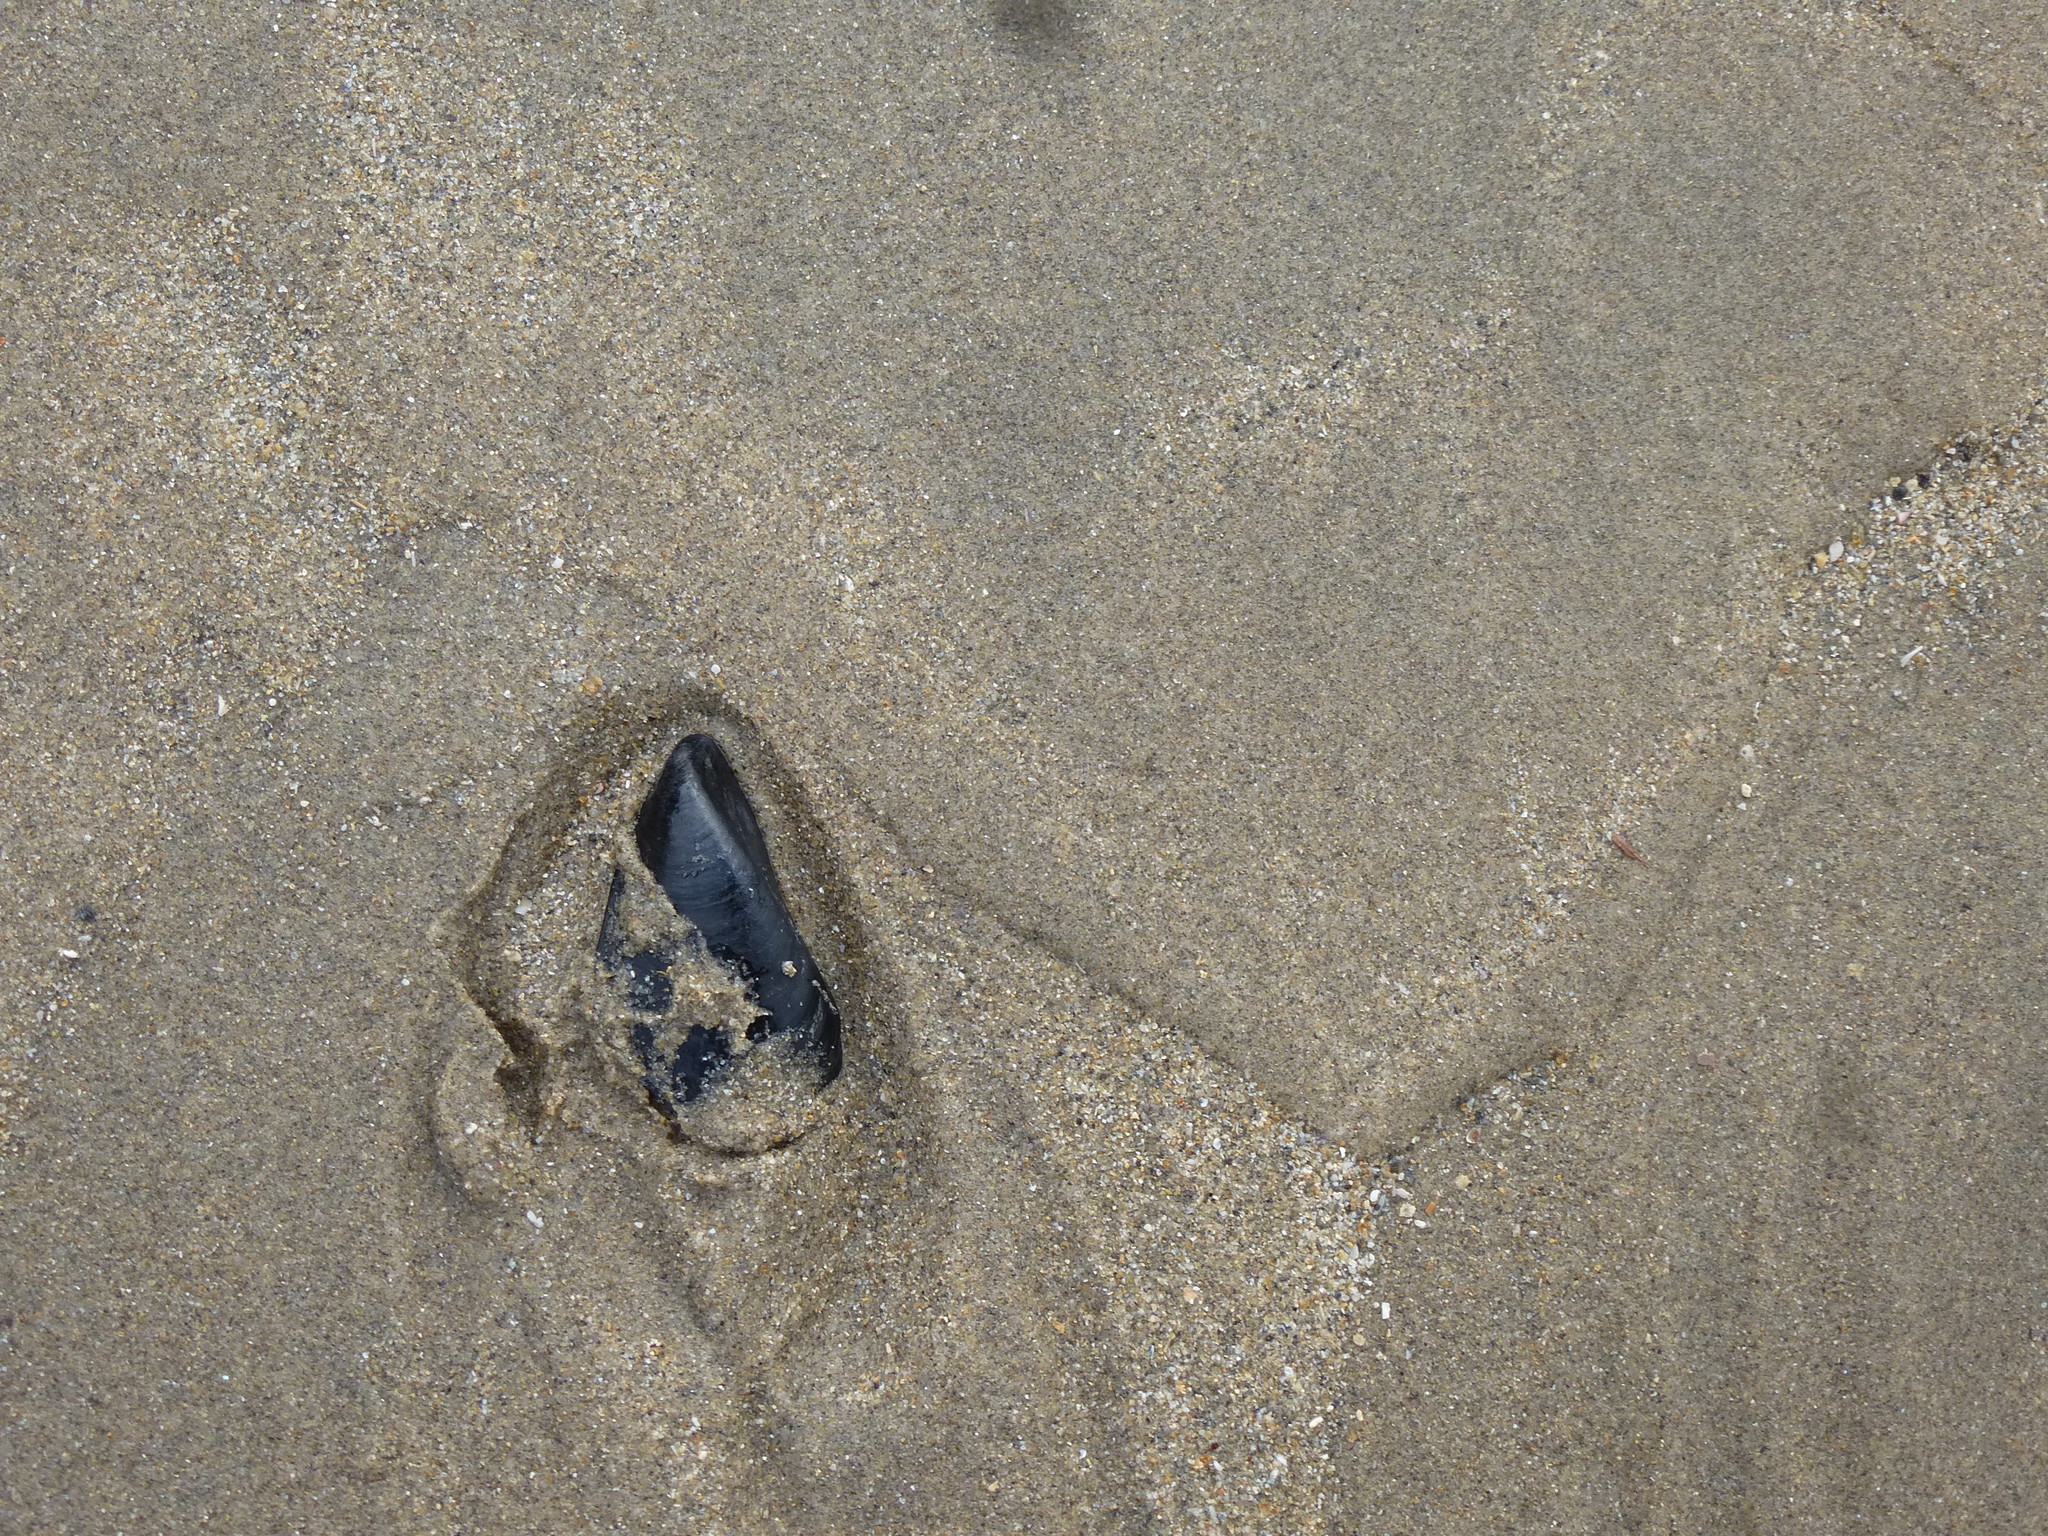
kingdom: Animalia
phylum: Mollusca
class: Bivalvia
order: Mytilida
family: Mytilidae
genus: Mytilus
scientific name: Mytilus edulis
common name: Blue mussel
